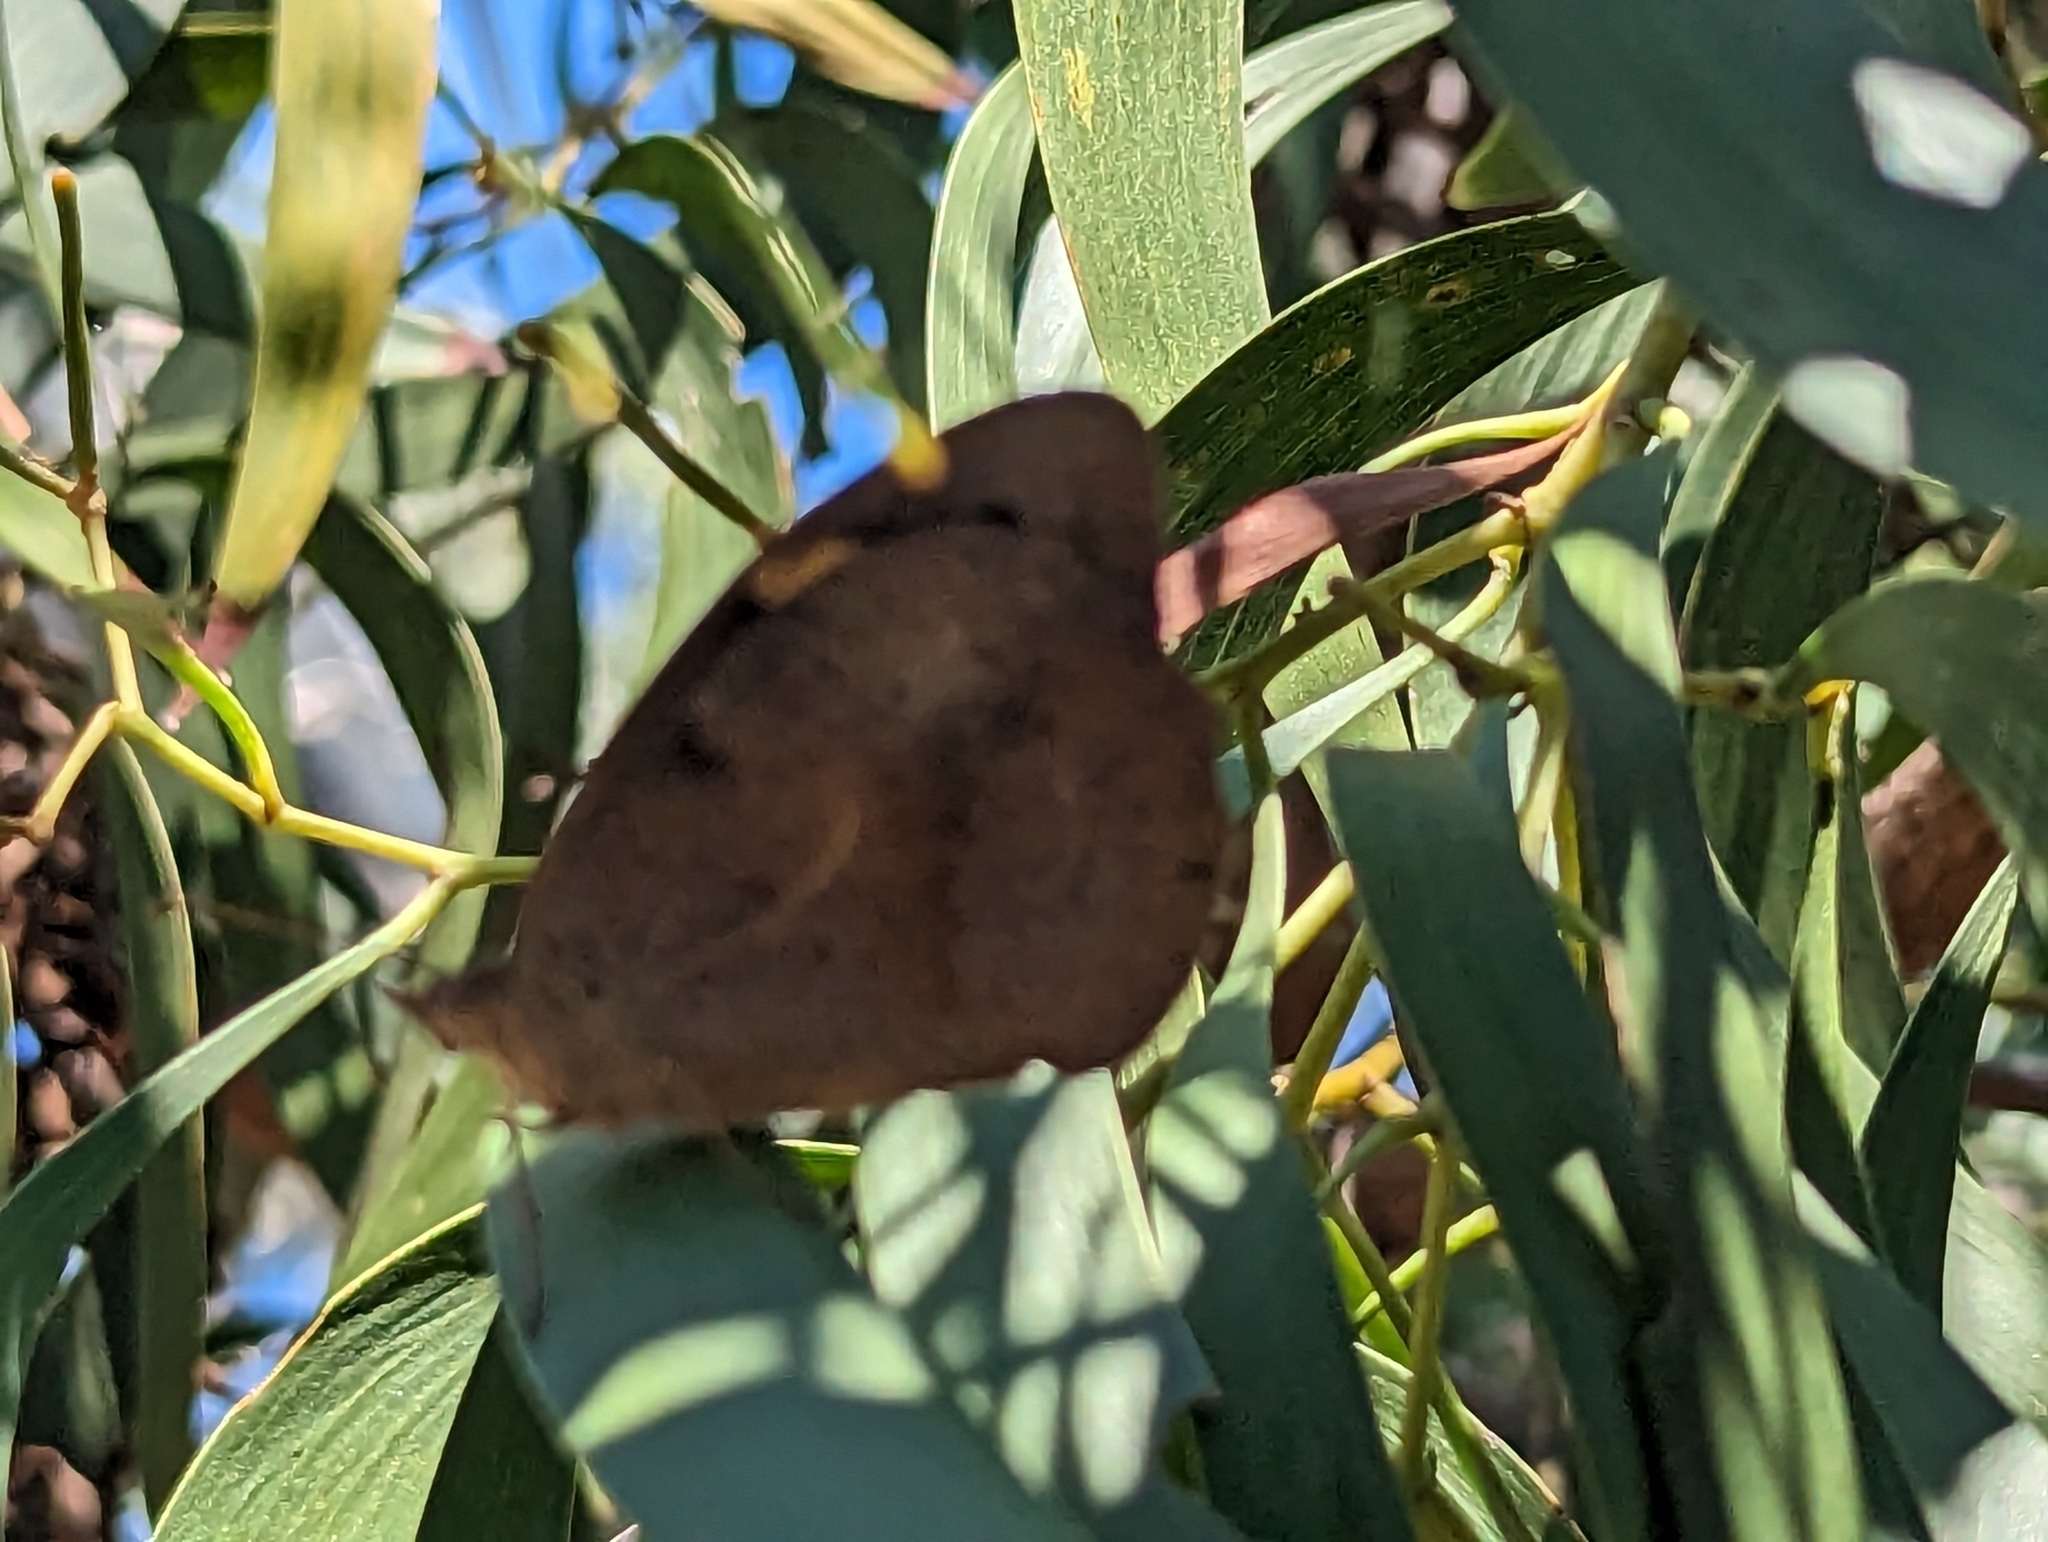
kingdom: Animalia
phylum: Arthropoda
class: Insecta
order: Lepidoptera
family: Nymphalidae
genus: Heteronympha
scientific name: Heteronympha merope
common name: Common brown
